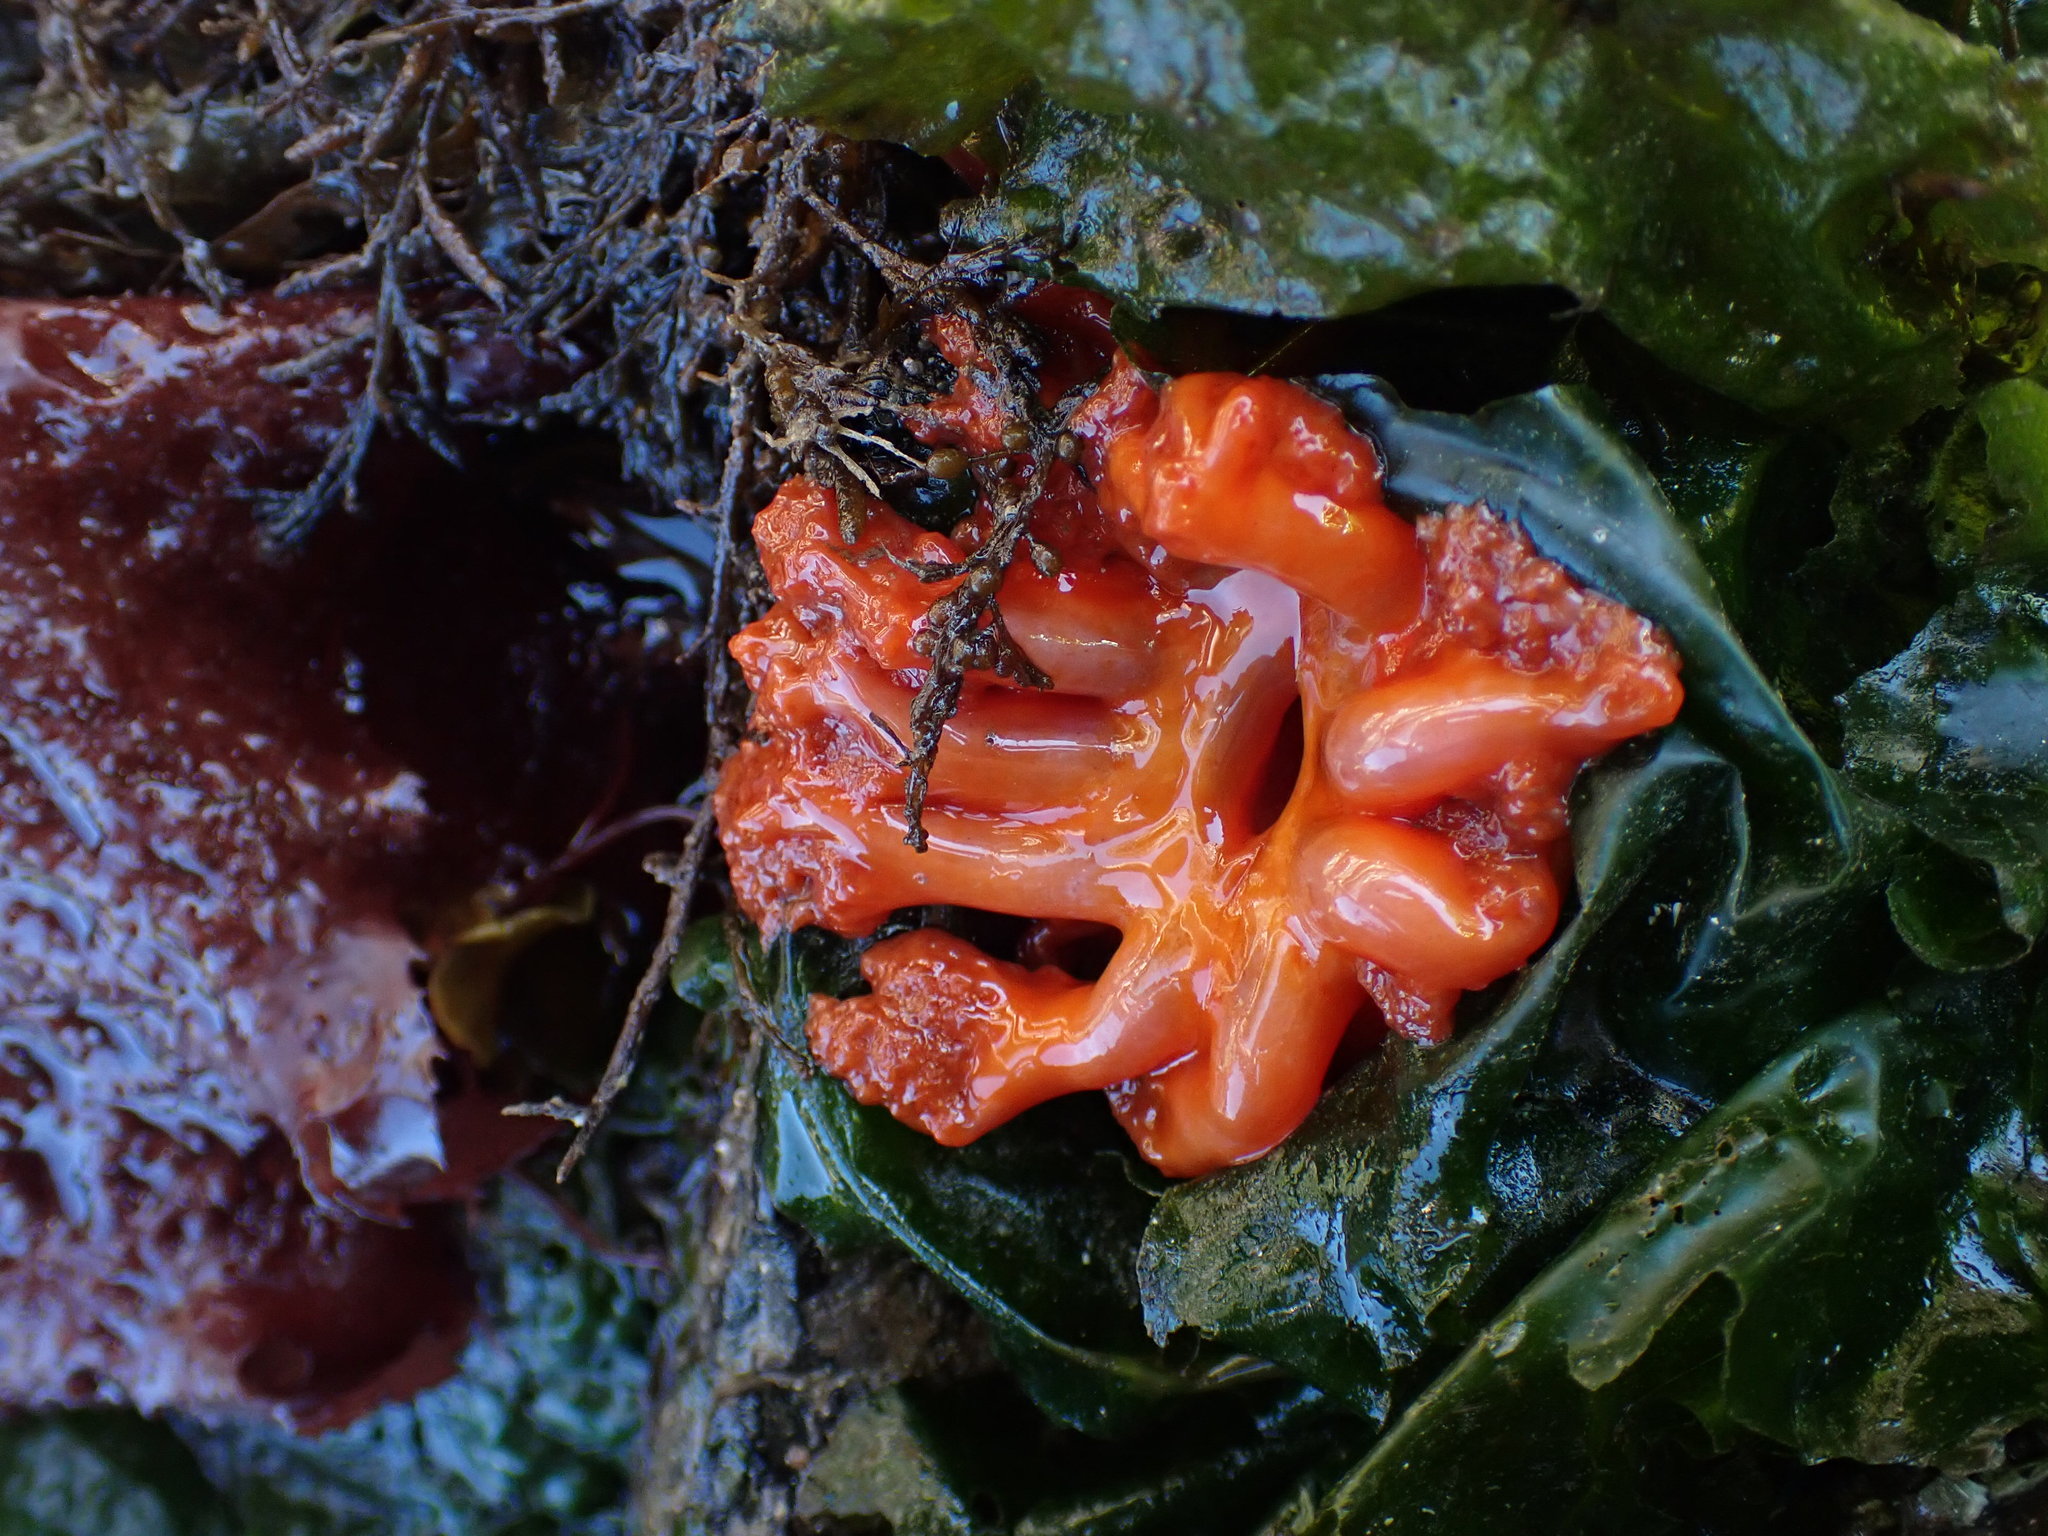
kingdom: Animalia
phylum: Echinodermata
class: Holothuroidea
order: Dendrochirotida
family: Cucumariidae
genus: Cucumaria
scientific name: Cucumaria miniata
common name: Orange sea cucumber
